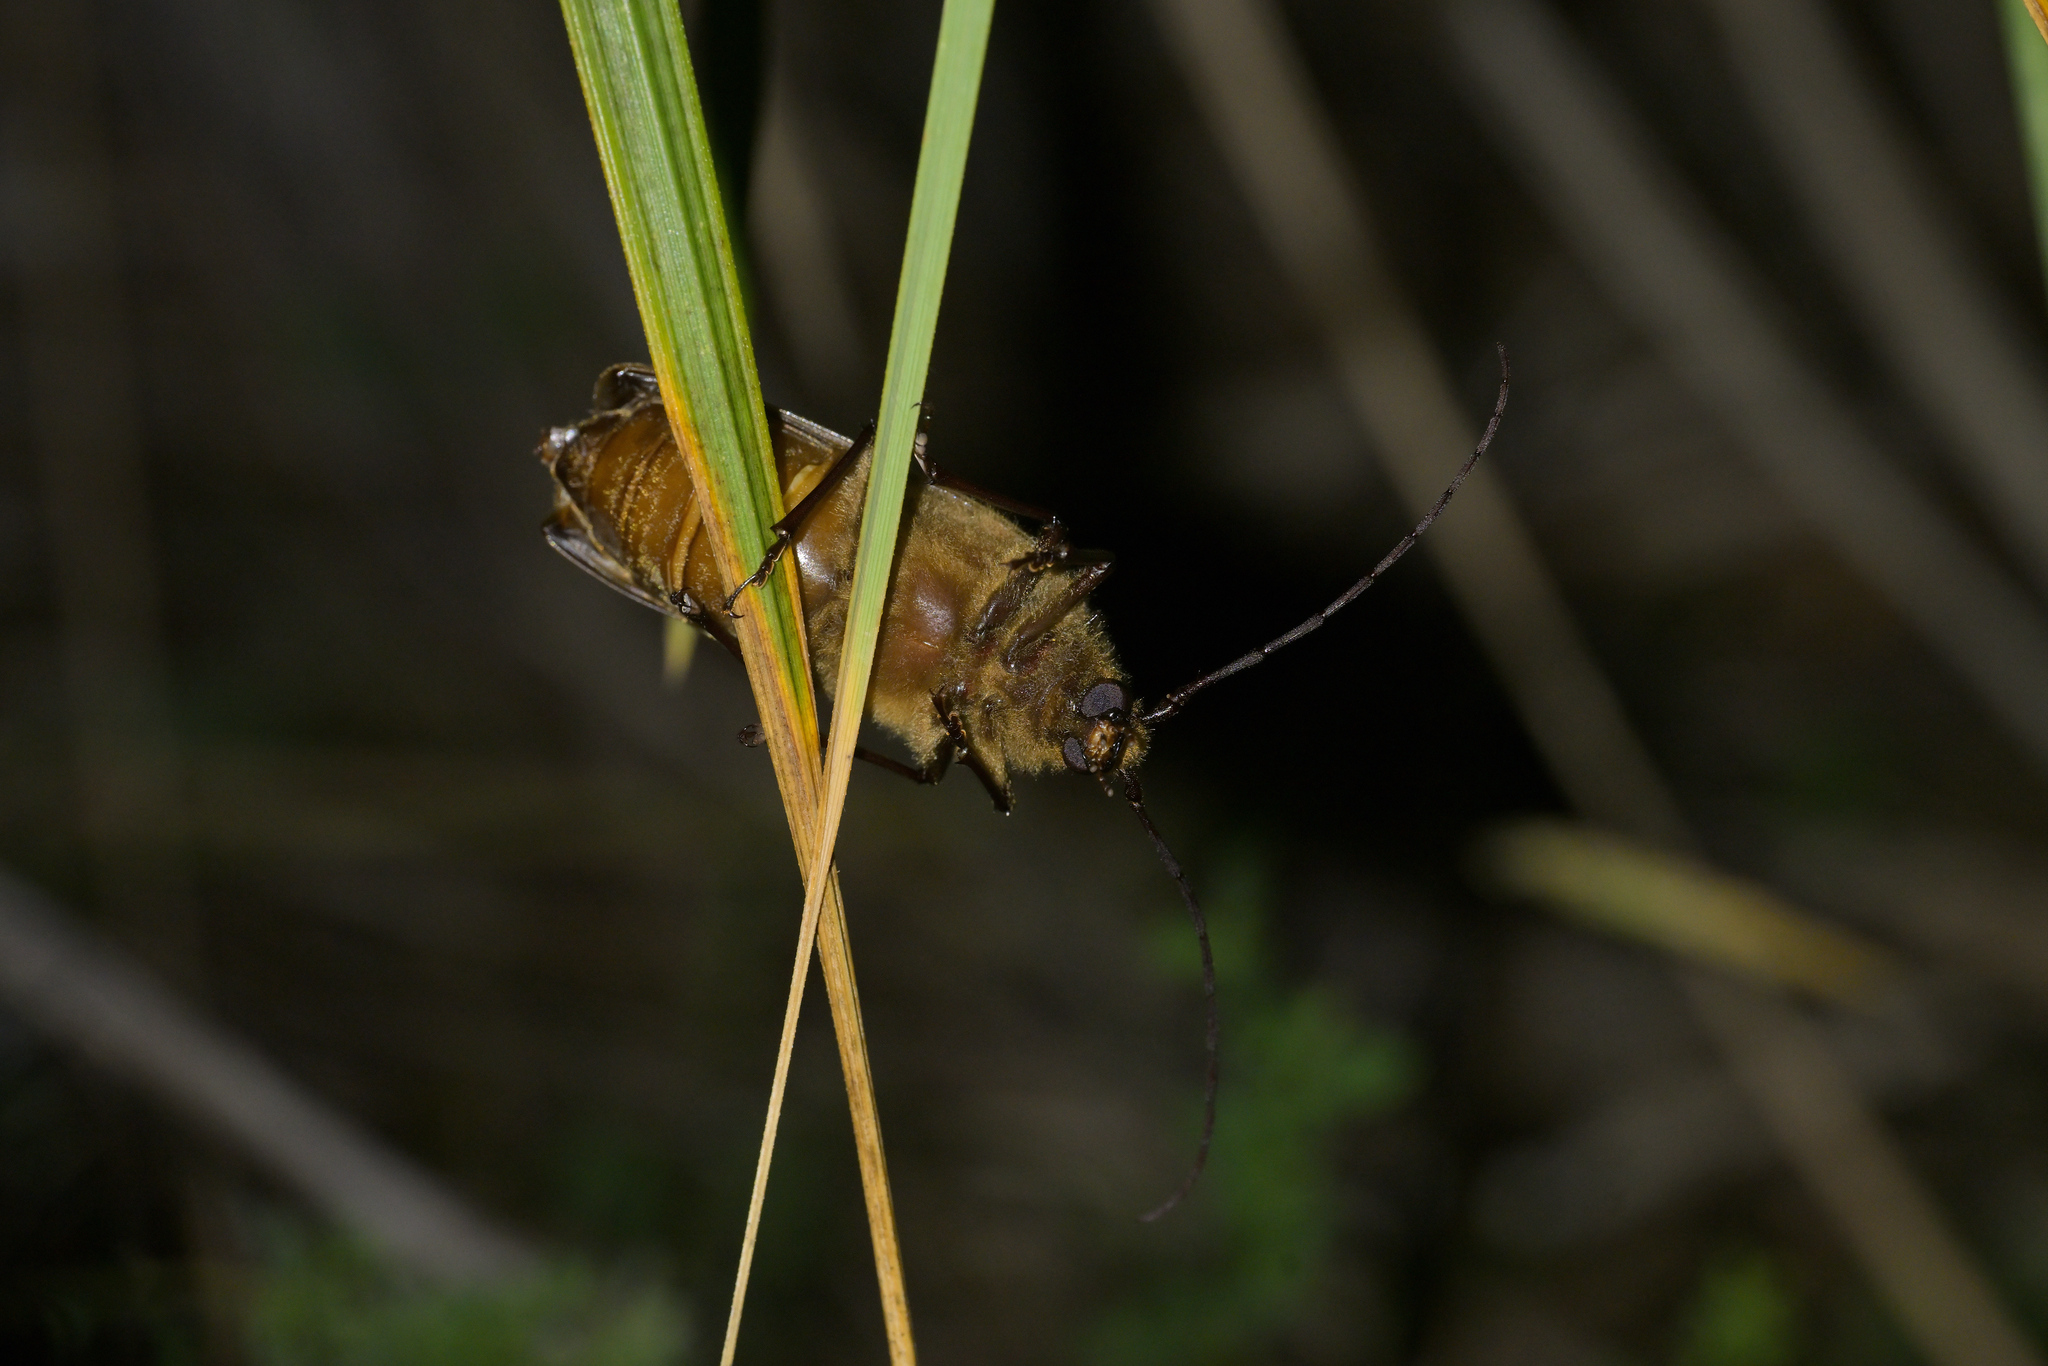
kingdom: Animalia
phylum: Arthropoda
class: Insecta
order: Coleoptera
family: Cerambycidae
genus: Prionoplus
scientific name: Prionoplus reticularis
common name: Huhu beetle
